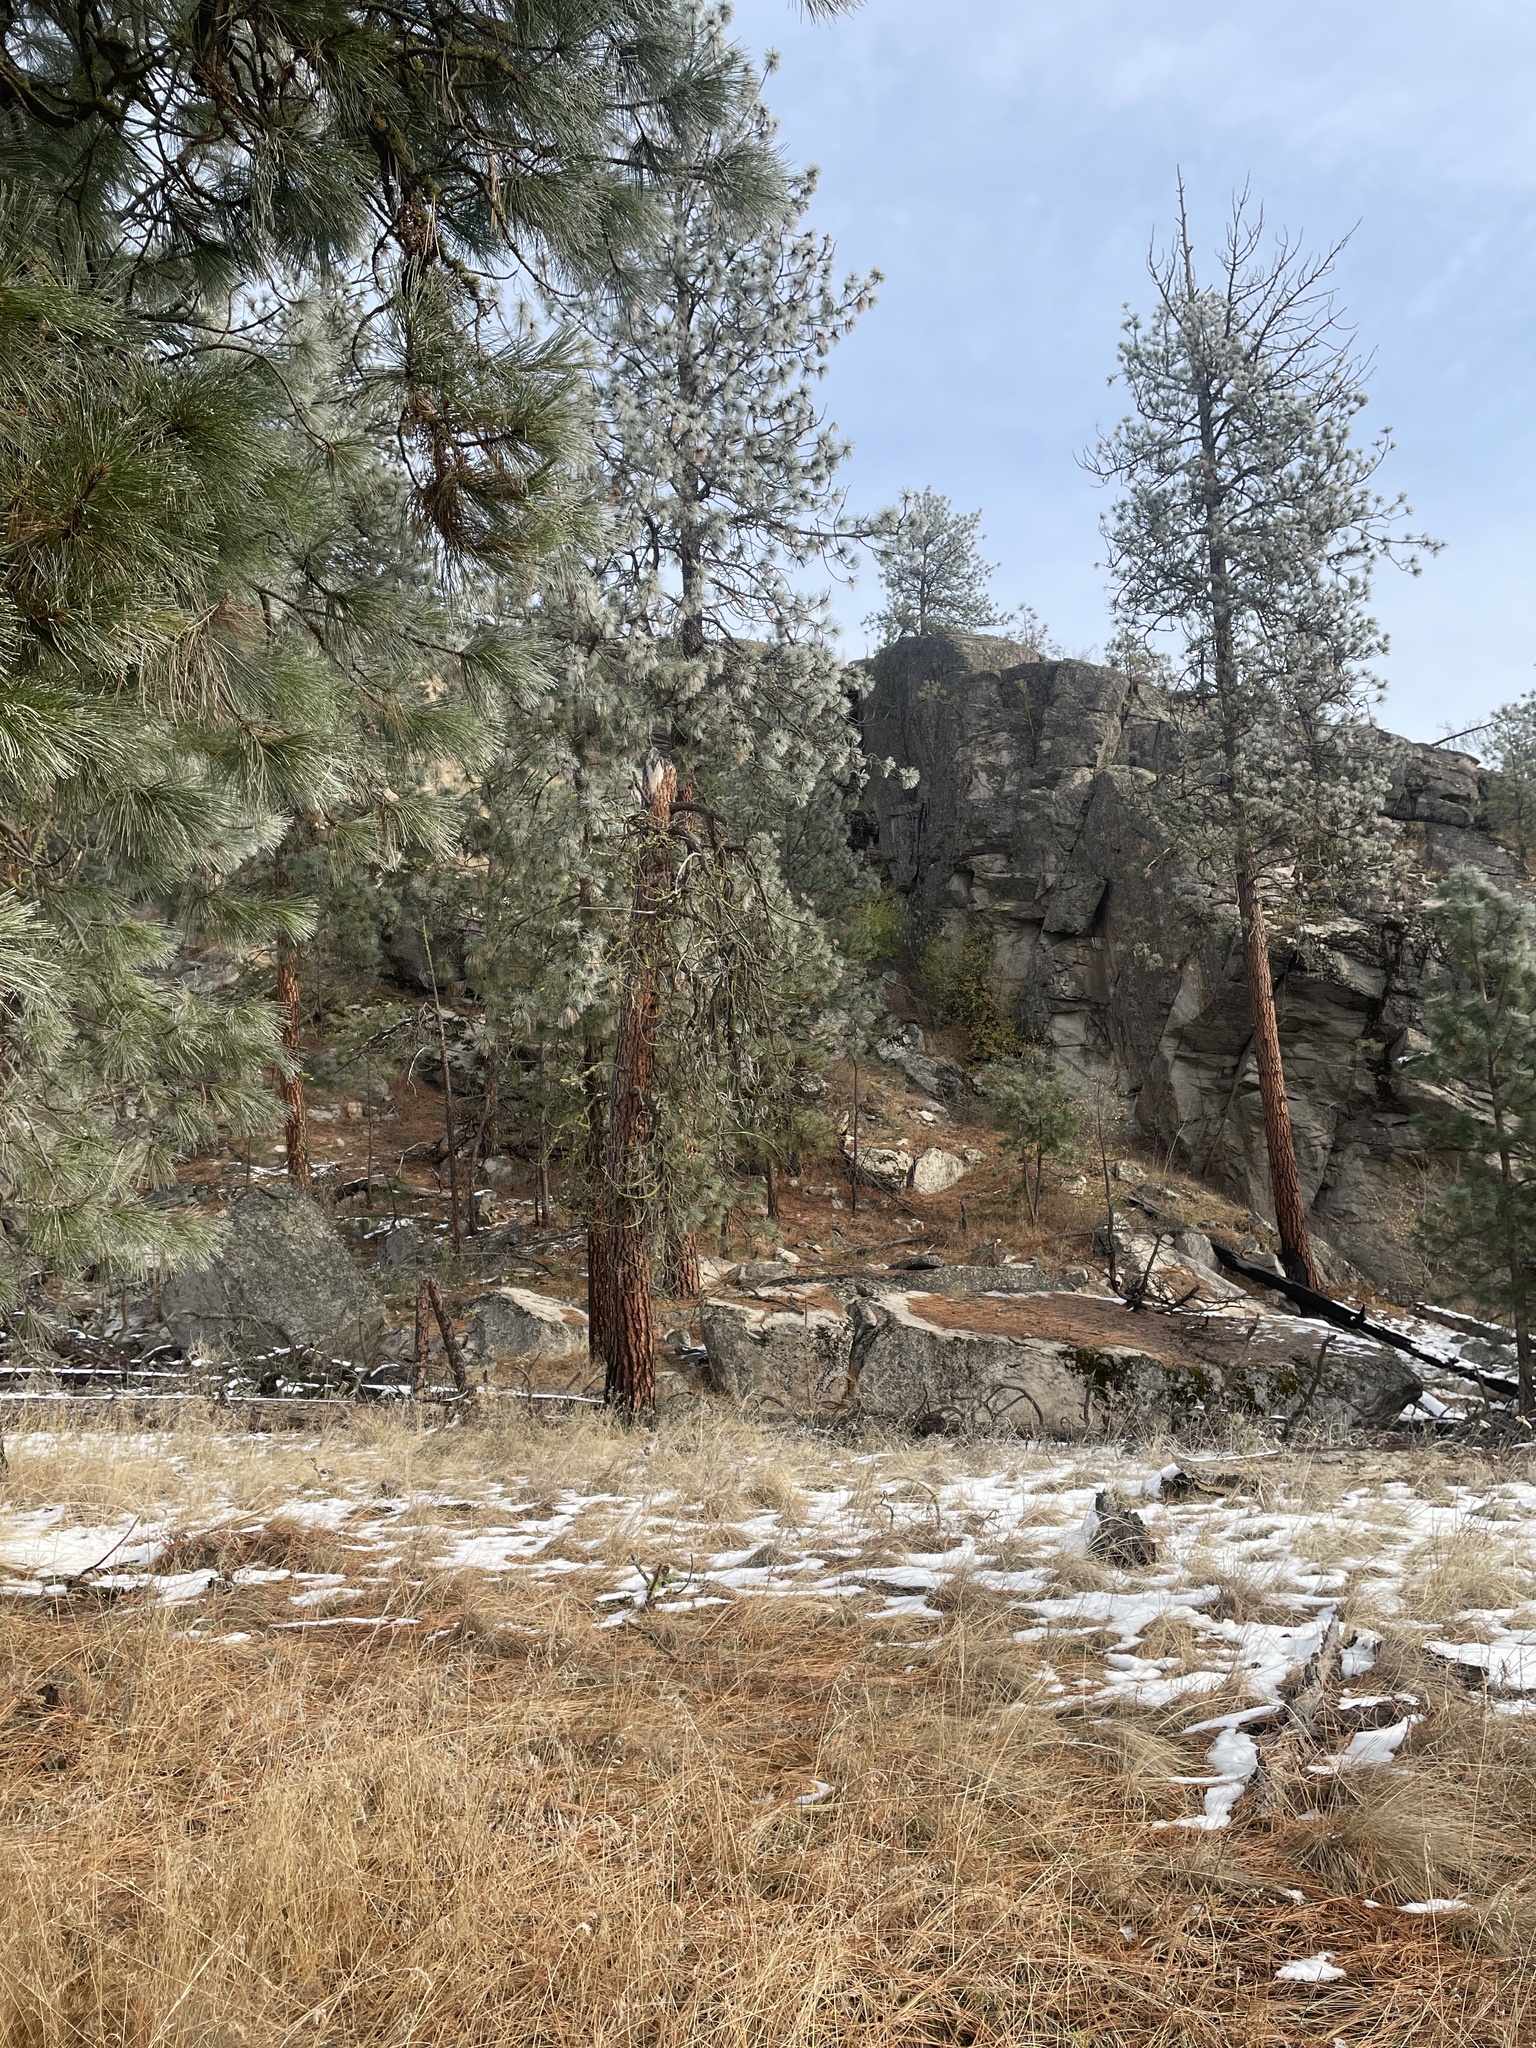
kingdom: Animalia
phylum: Chordata
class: Aves
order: Passeriformes
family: Sittidae
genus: Sitta
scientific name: Sitta pygmaea
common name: Pygmy nuthatch
